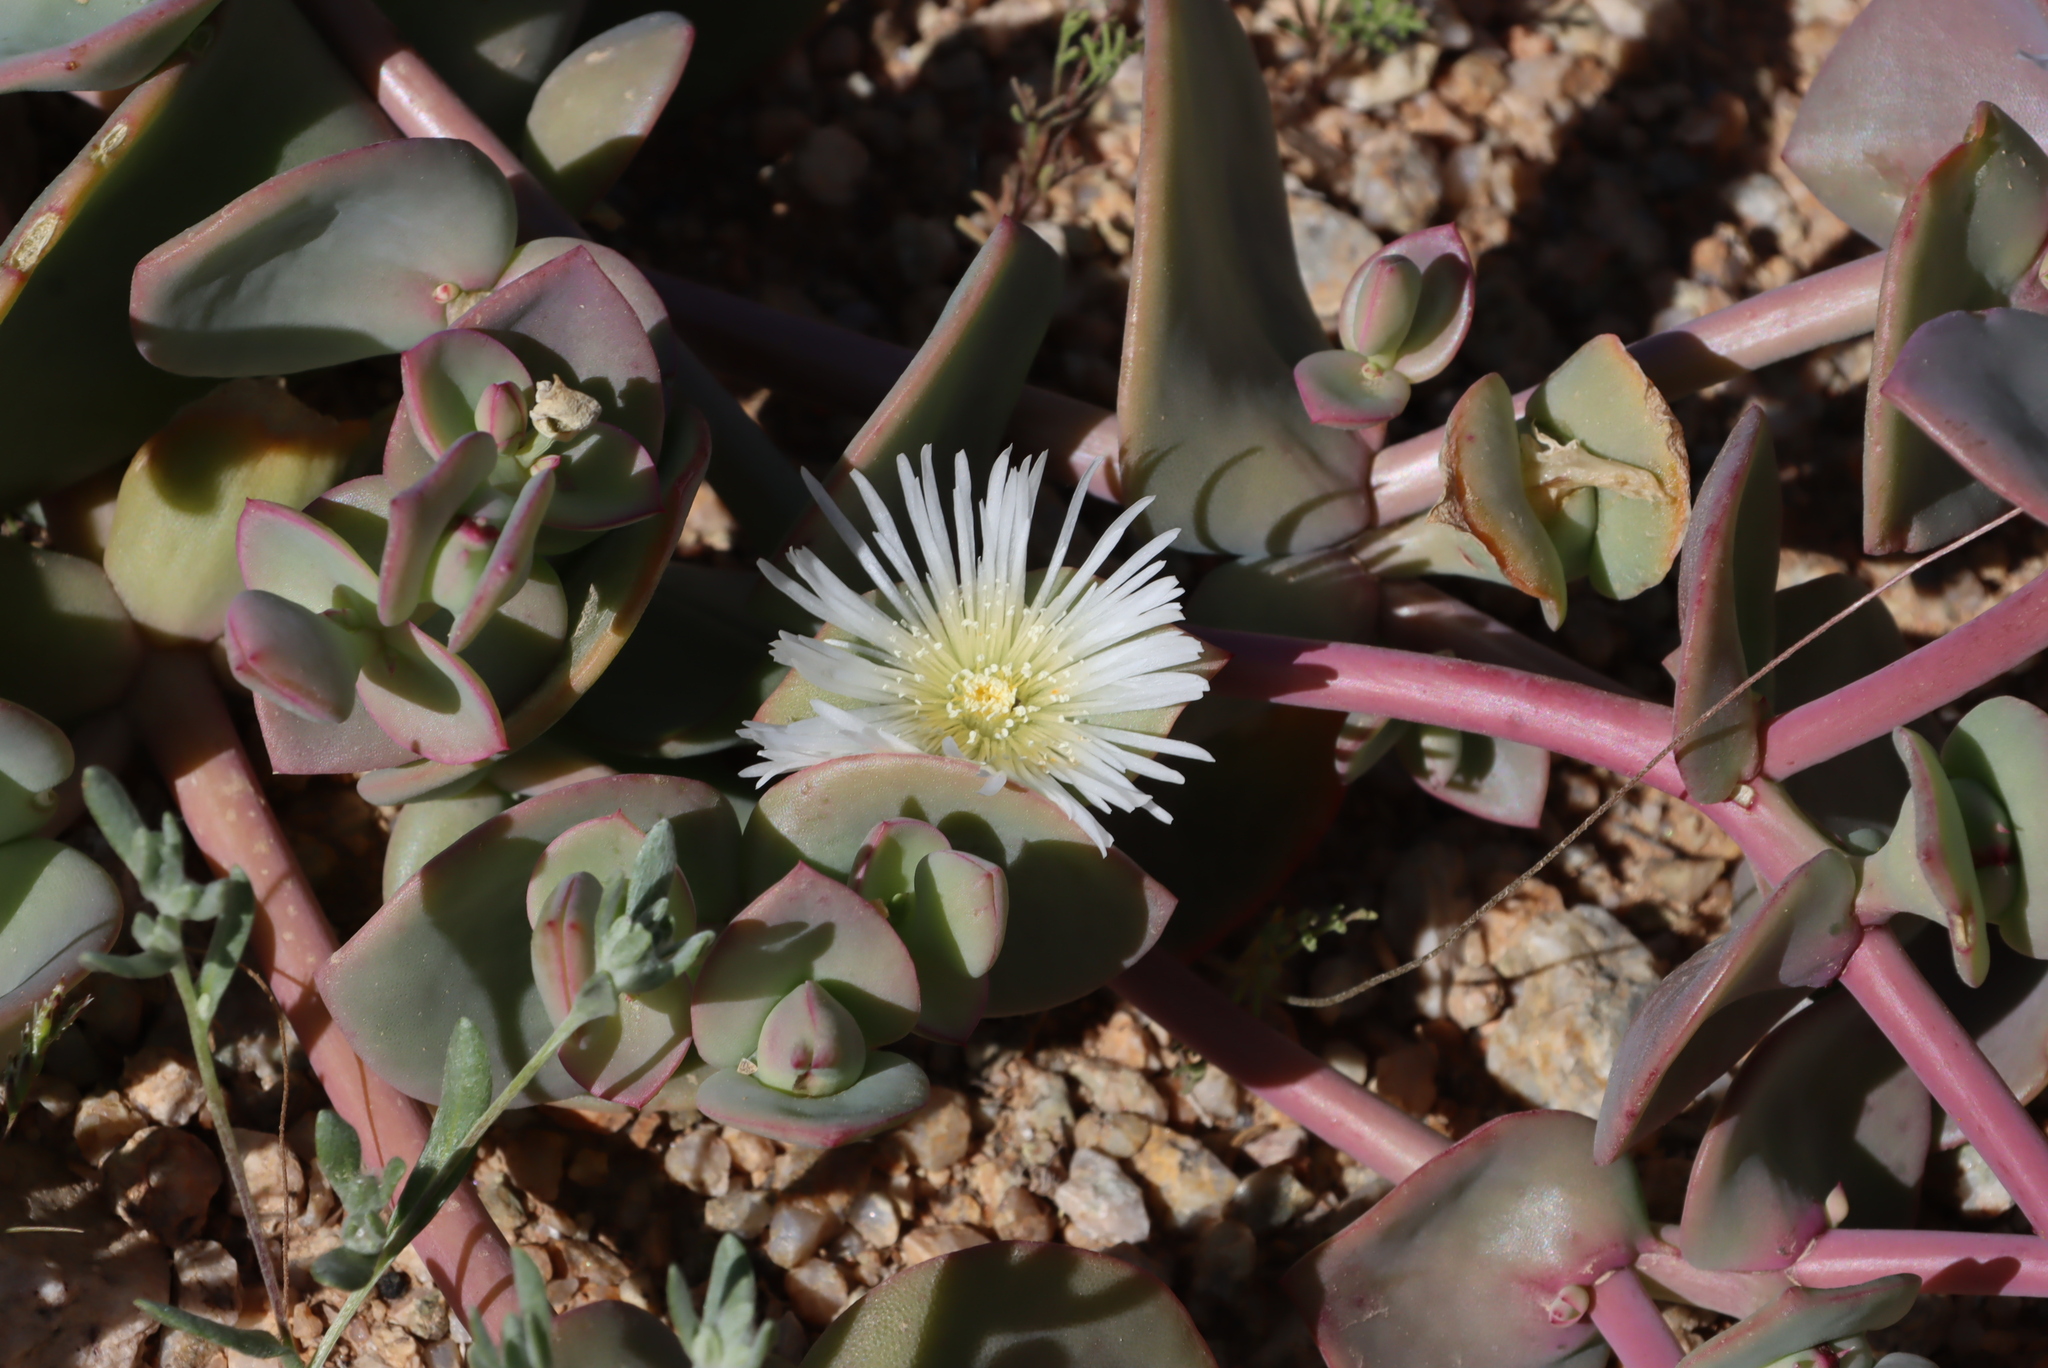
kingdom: Plantae
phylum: Tracheophyta
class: Magnoliopsida
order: Caryophyllales
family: Aizoaceae
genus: Mesembryanthemum
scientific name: Mesembryanthemum sladenianum
